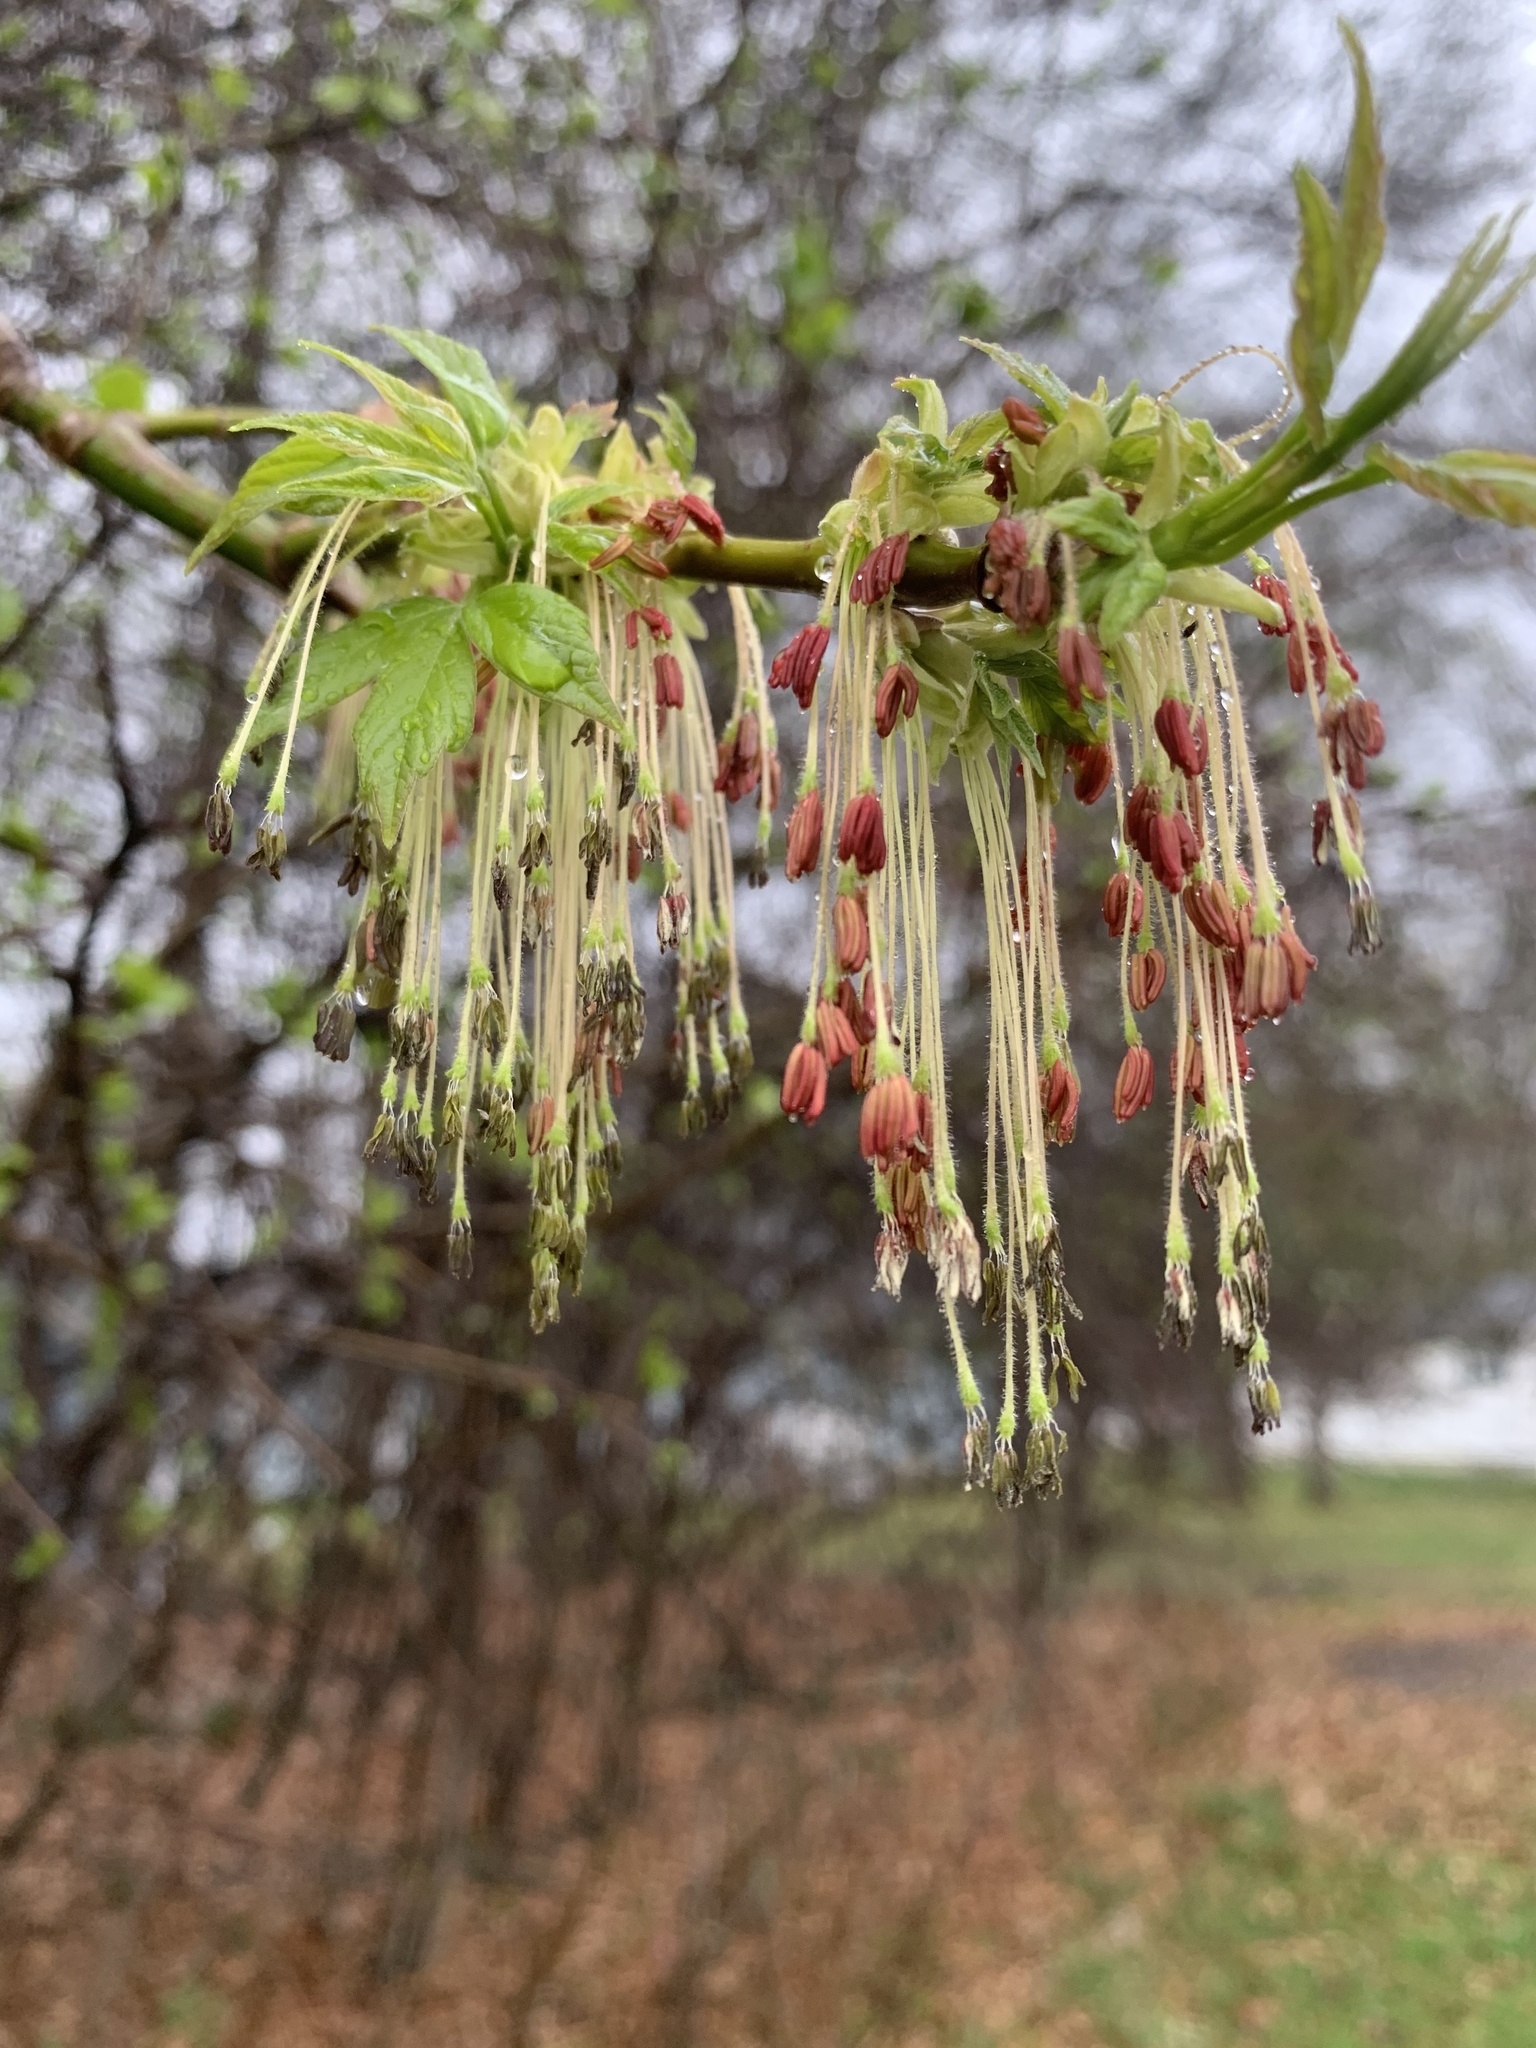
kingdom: Plantae
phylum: Tracheophyta
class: Magnoliopsida
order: Sapindales
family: Sapindaceae
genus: Acer
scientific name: Acer negundo
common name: Ashleaf maple
